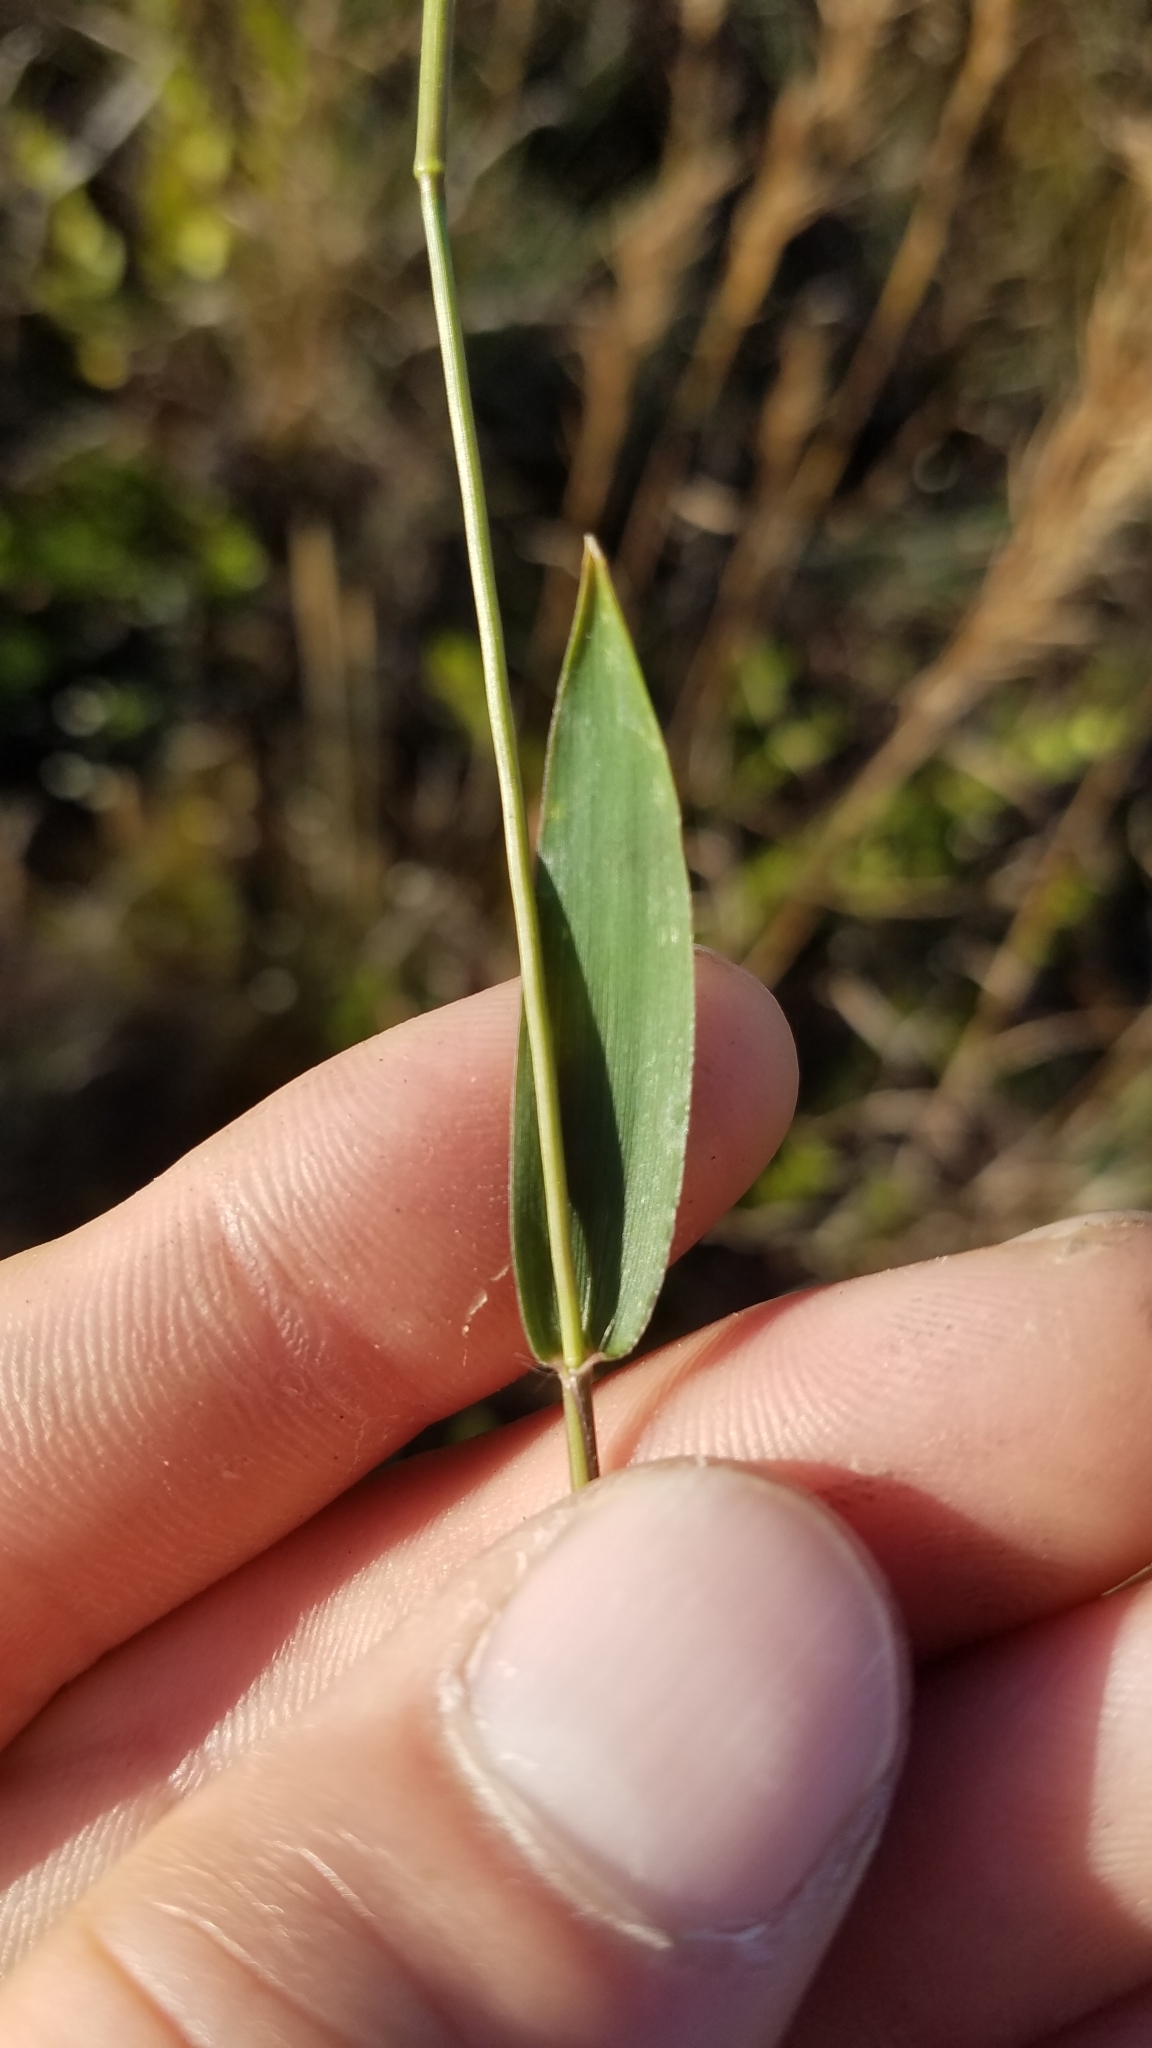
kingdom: Plantae
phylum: Tracheophyta
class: Liliopsida
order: Poales
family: Poaceae
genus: Dichanthelium
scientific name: Dichanthelium webberianum
